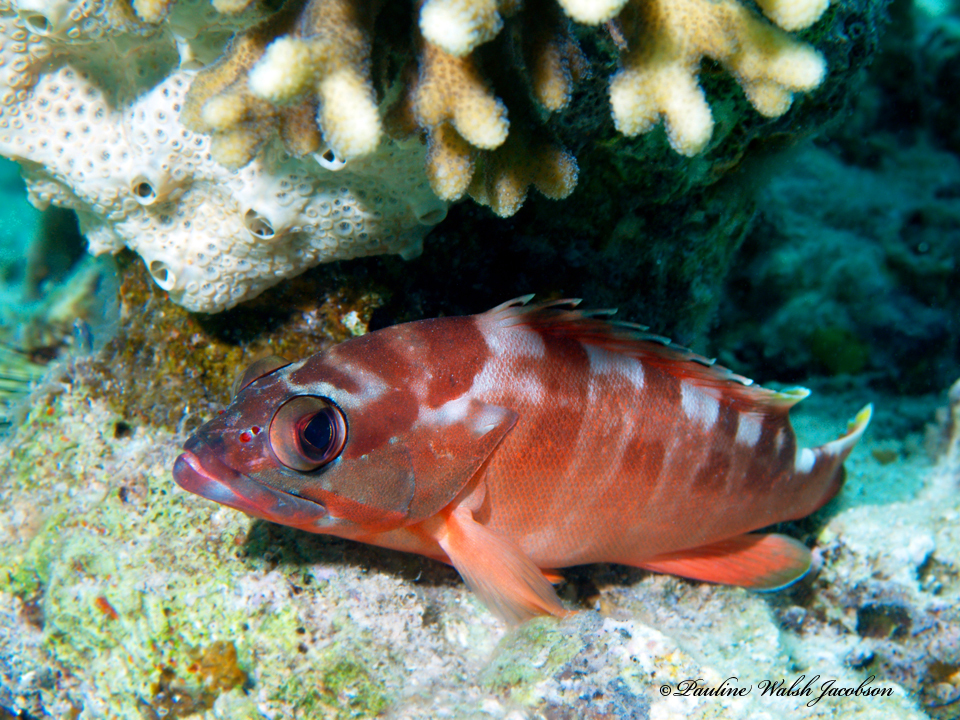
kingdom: Animalia
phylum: Chordata
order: Perciformes
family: Serranidae
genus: Epinephelus
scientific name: Epinephelus fasciatus
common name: Blacktip grouper
